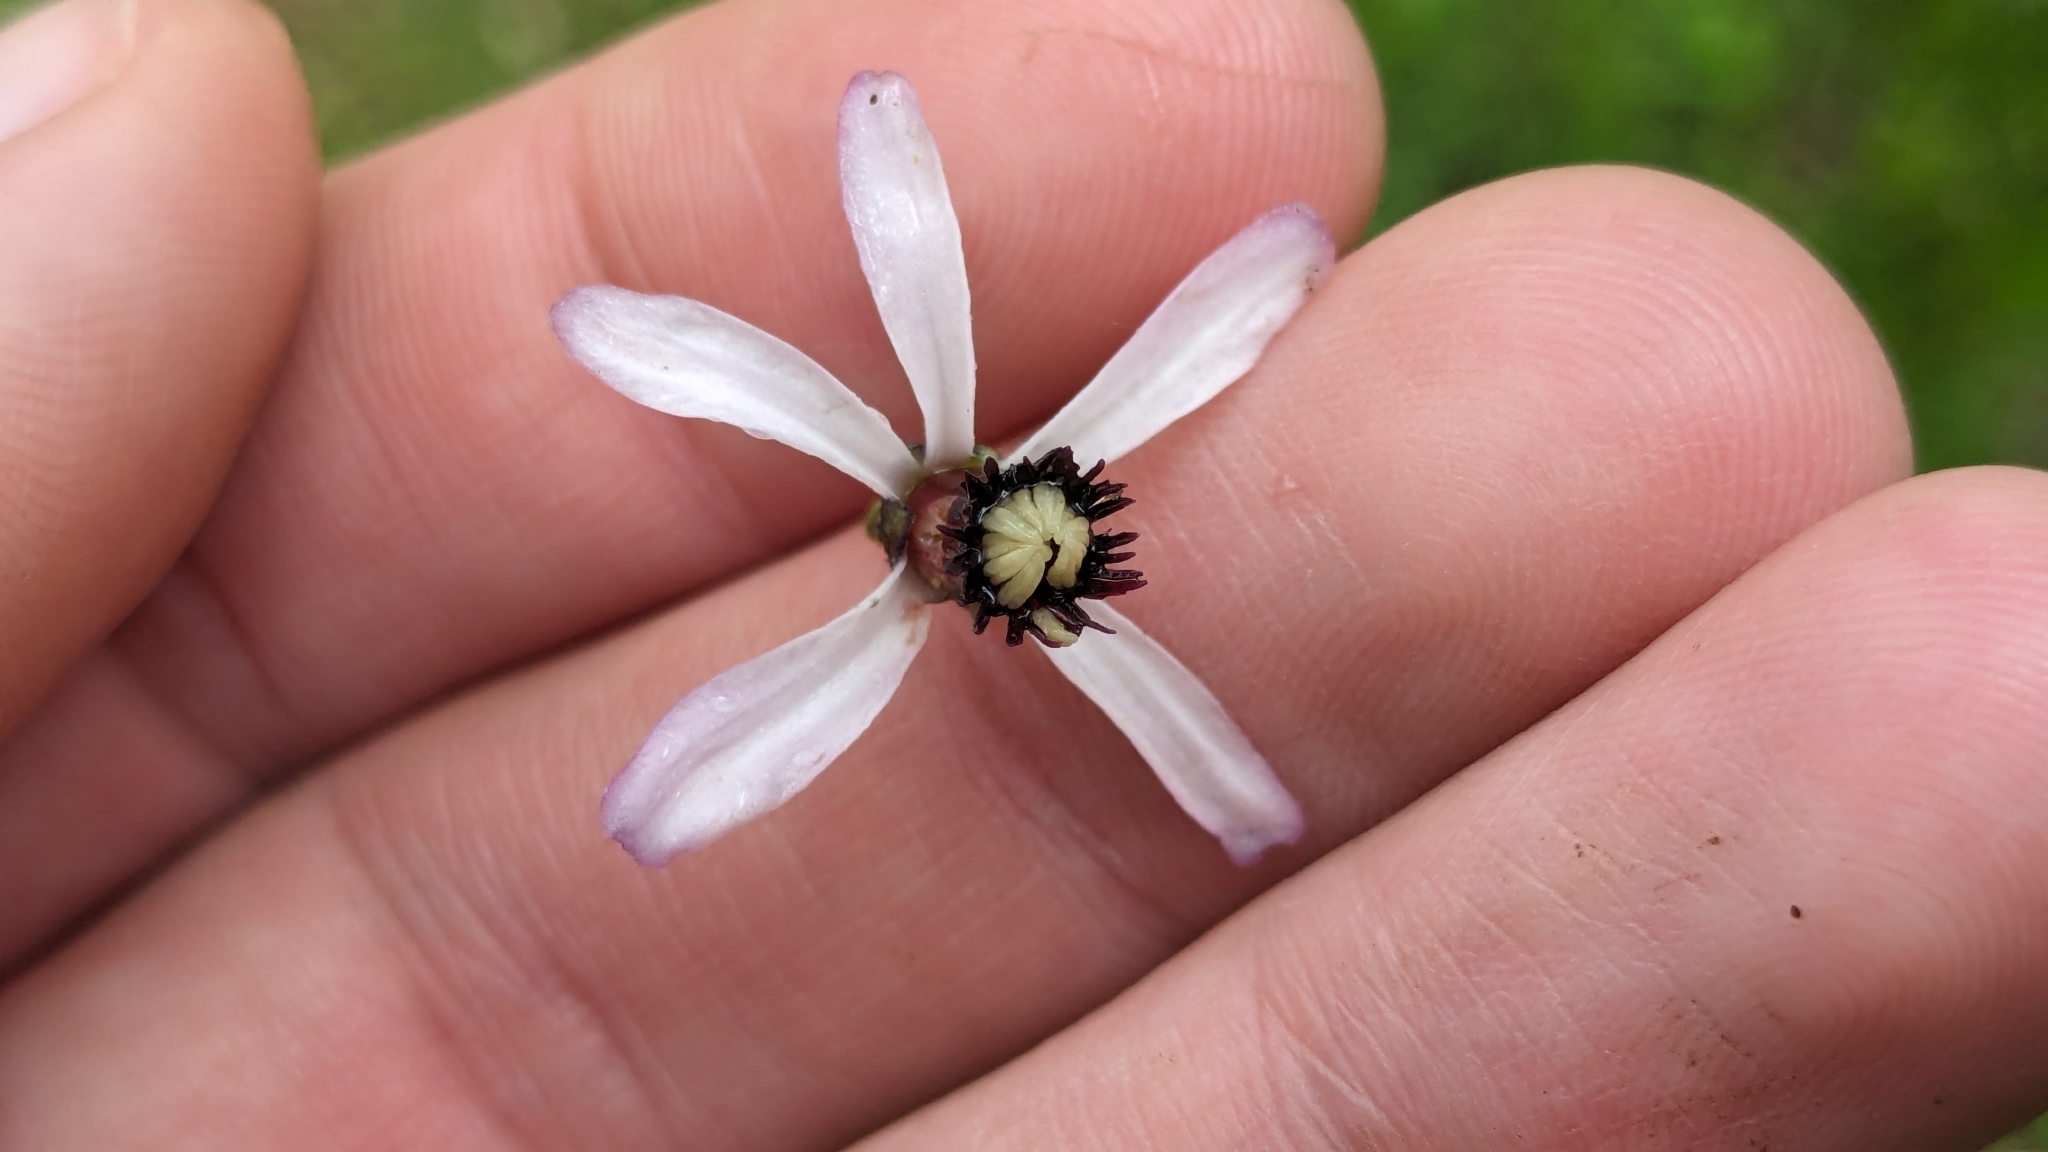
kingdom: Plantae
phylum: Tracheophyta
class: Magnoliopsida
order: Sapindales
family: Meliaceae
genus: Melia
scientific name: Melia azedarach
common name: Chinaberrytree
